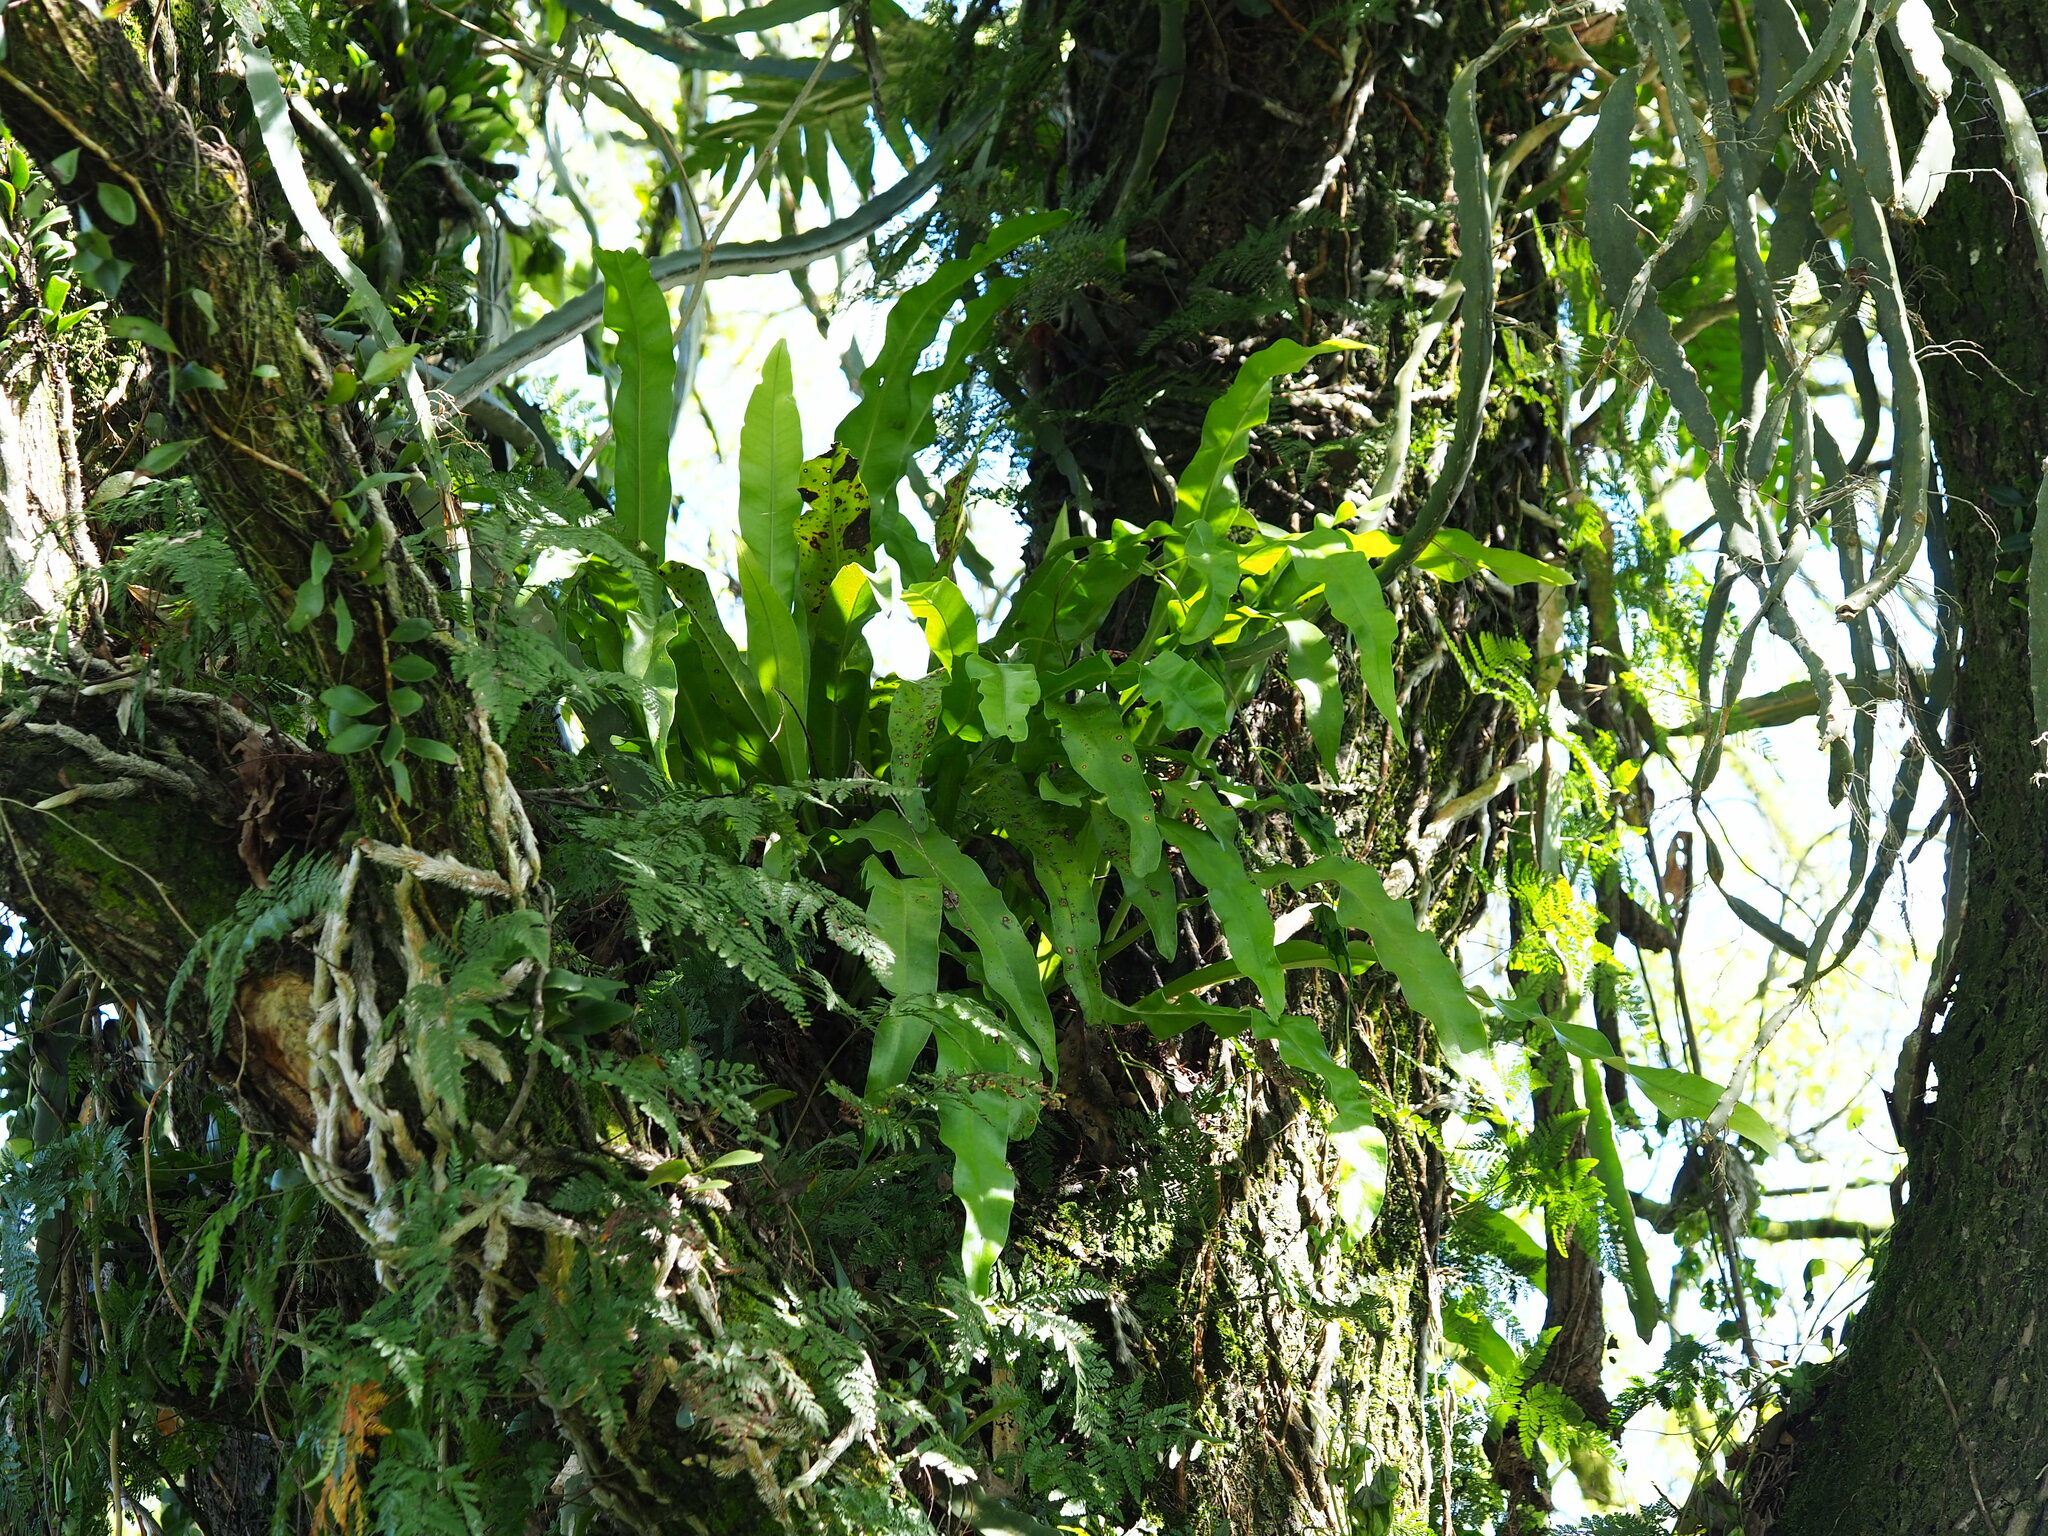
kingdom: Plantae
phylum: Tracheophyta
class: Polypodiopsida
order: Polypodiales
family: Polypodiaceae
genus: Microsorum
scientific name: Microsorum punctatum
